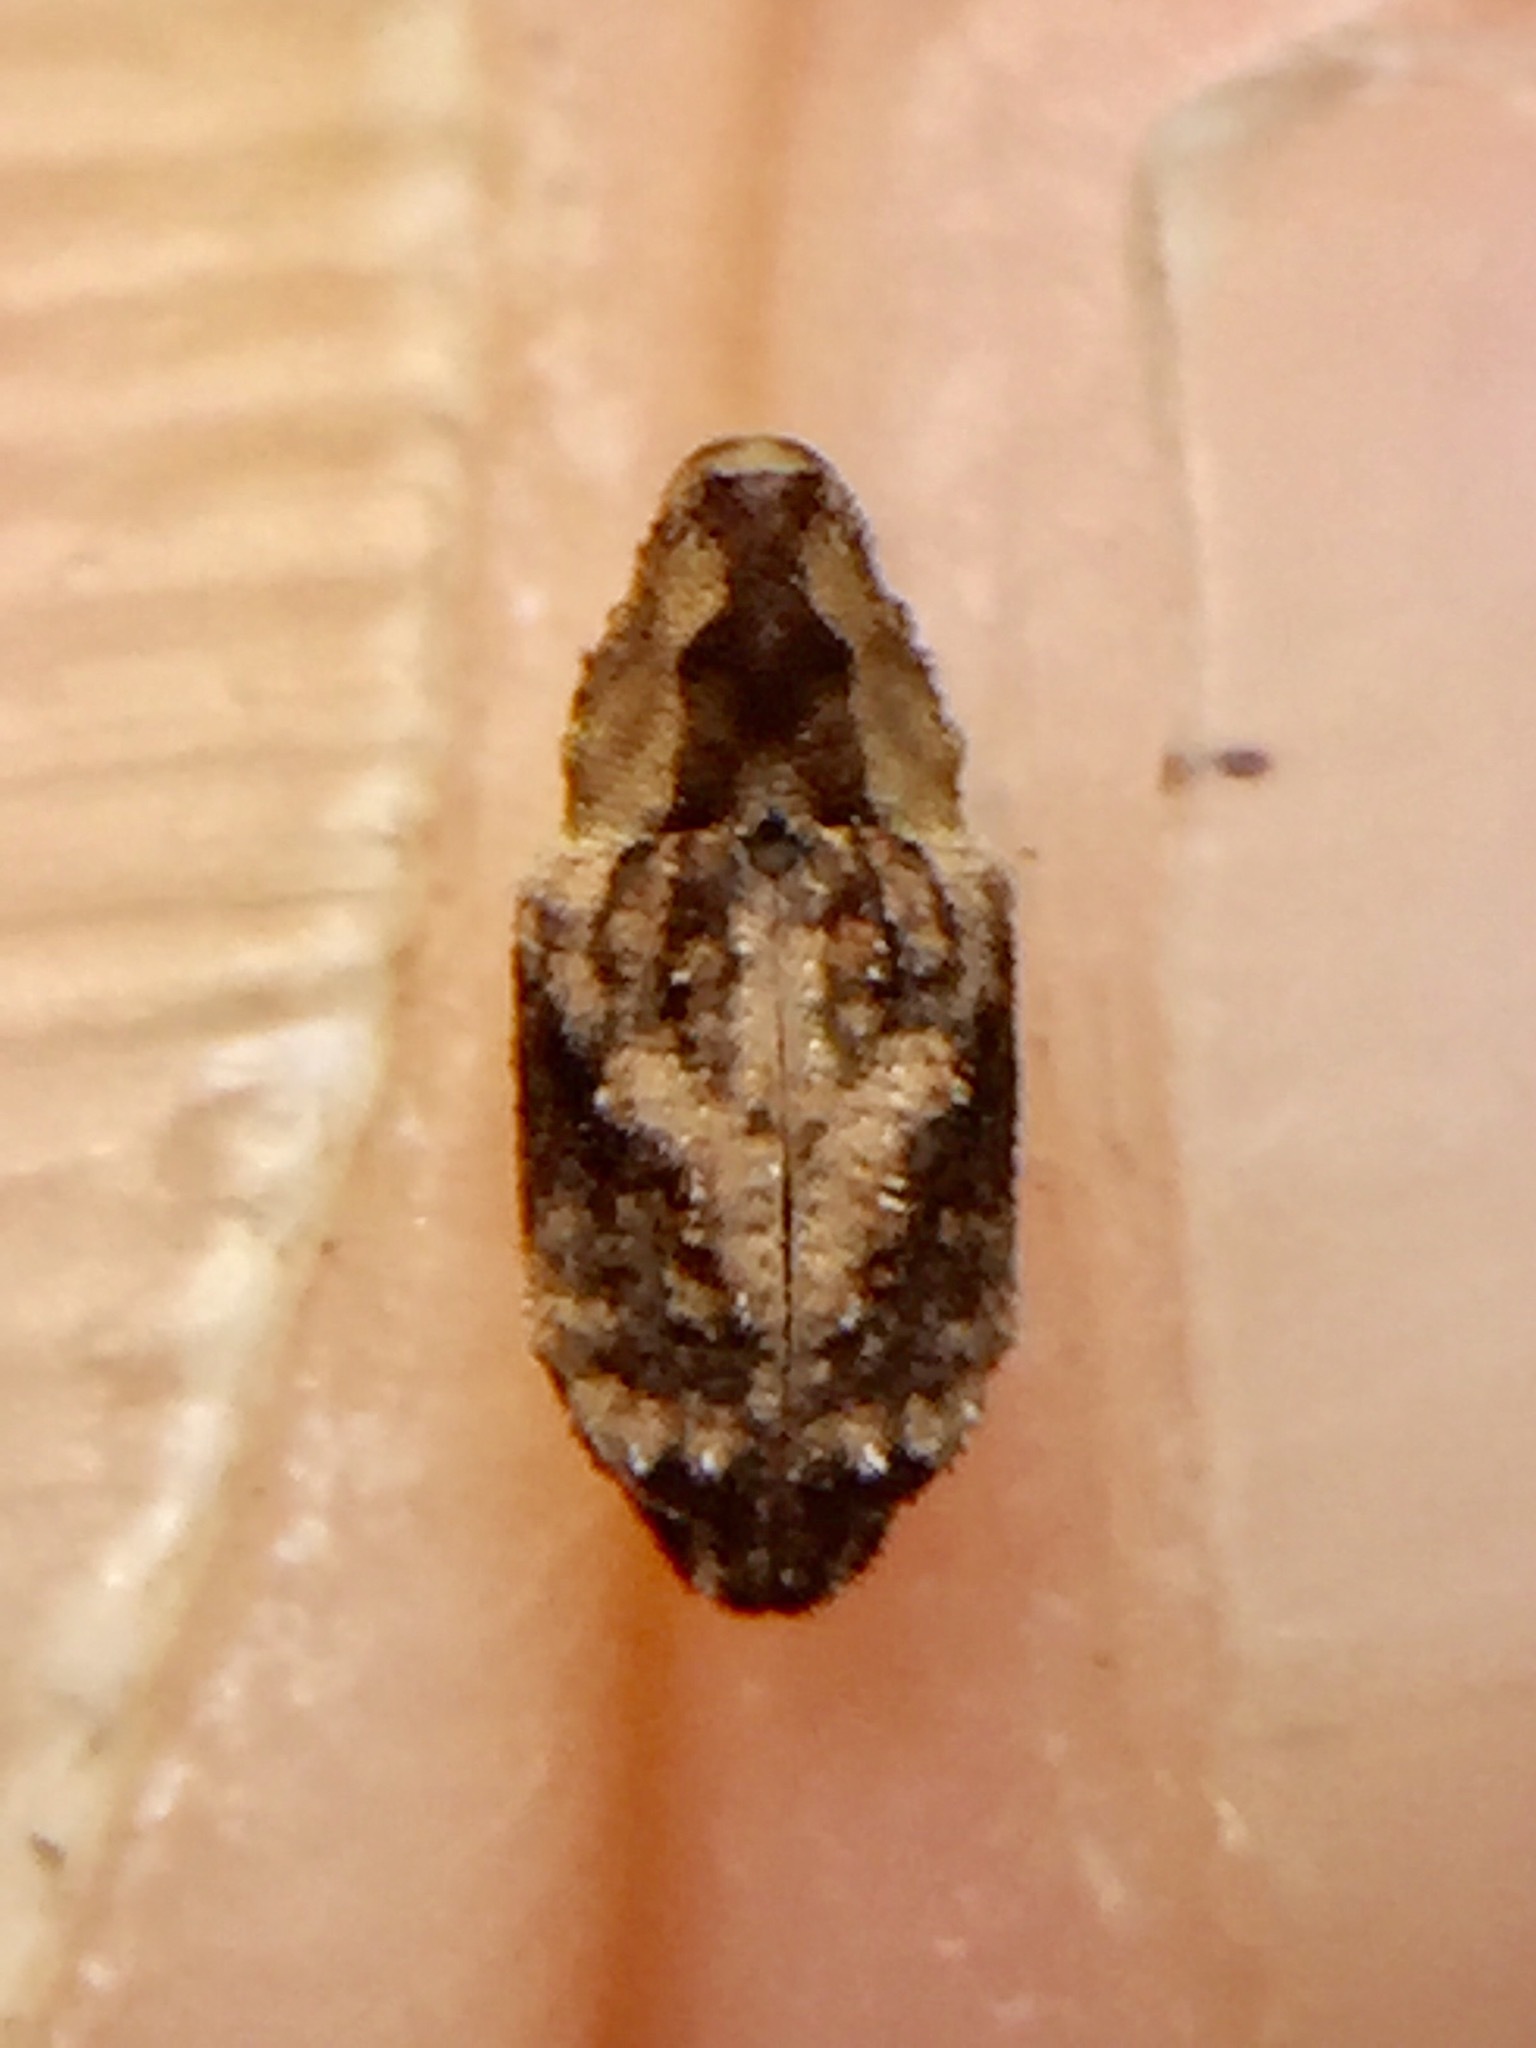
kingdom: Animalia
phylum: Arthropoda
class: Insecta
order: Coleoptera
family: Curculionidae
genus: Mecistostylus
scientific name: Mecistostylus douei
